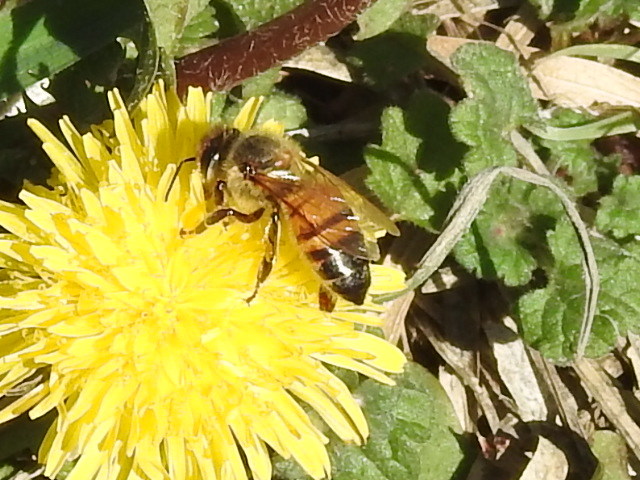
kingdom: Animalia
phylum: Arthropoda
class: Insecta
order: Hymenoptera
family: Apidae
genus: Apis
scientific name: Apis mellifera
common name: Honey bee
